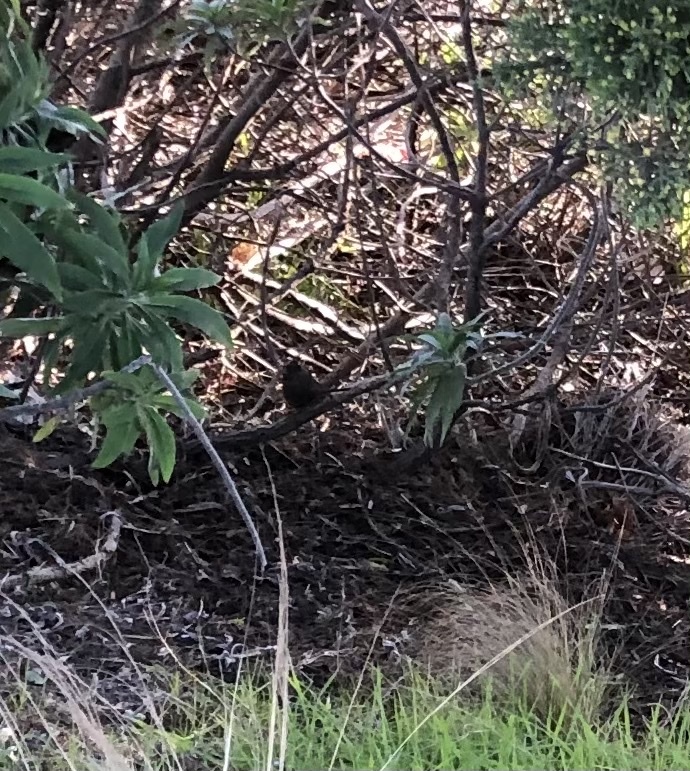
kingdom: Animalia
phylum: Chordata
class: Aves
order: Passeriformes
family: Passerellidae
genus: Passerella
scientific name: Passerella iliaca
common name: Fox sparrow
